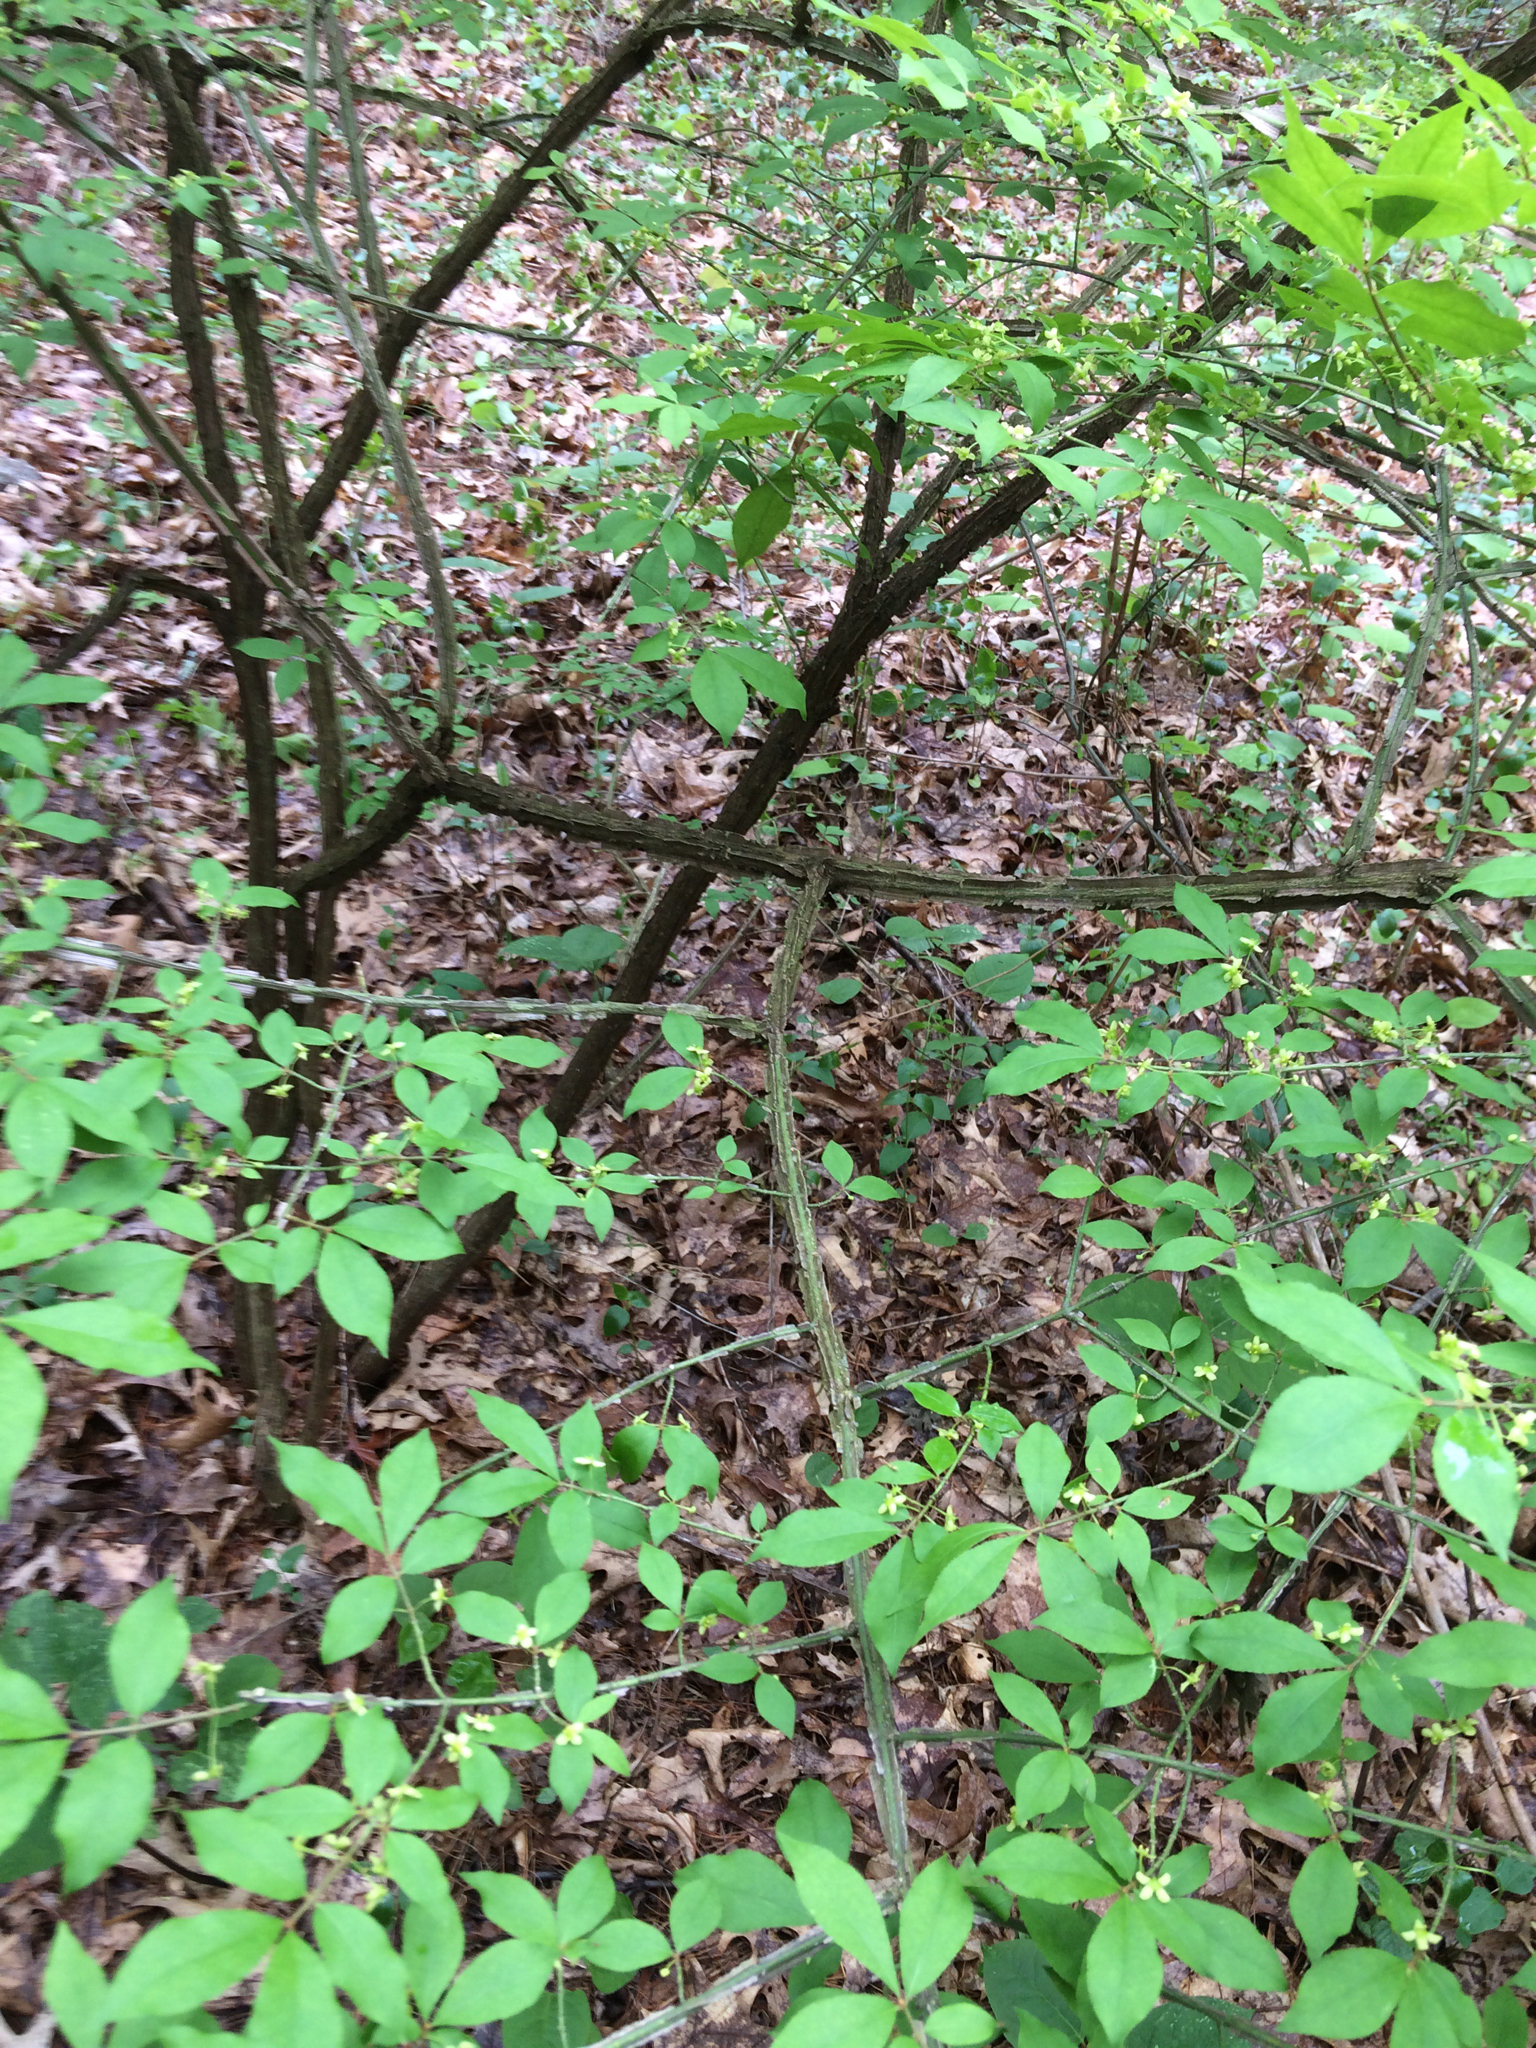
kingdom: Plantae
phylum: Tracheophyta
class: Magnoliopsida
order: Celastrales
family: Celastraceae
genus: Euonymus
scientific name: Euonymus alatus
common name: Winged euonymus
